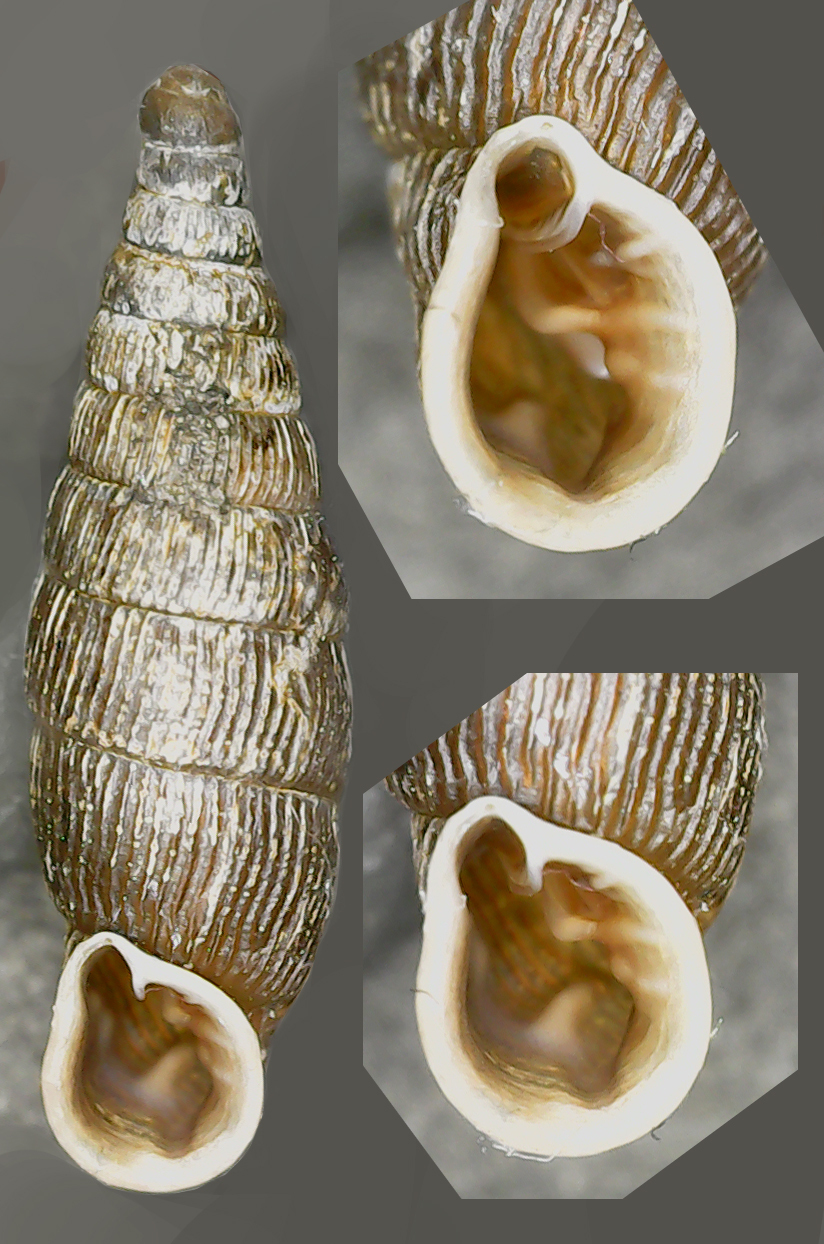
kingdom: Animalia
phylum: Mollusca
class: Gastropoda
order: Stylommatophora
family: Clausiliidae
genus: Clausilia
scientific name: Clausilia cruciata
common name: Sharp-ribbed door snail
